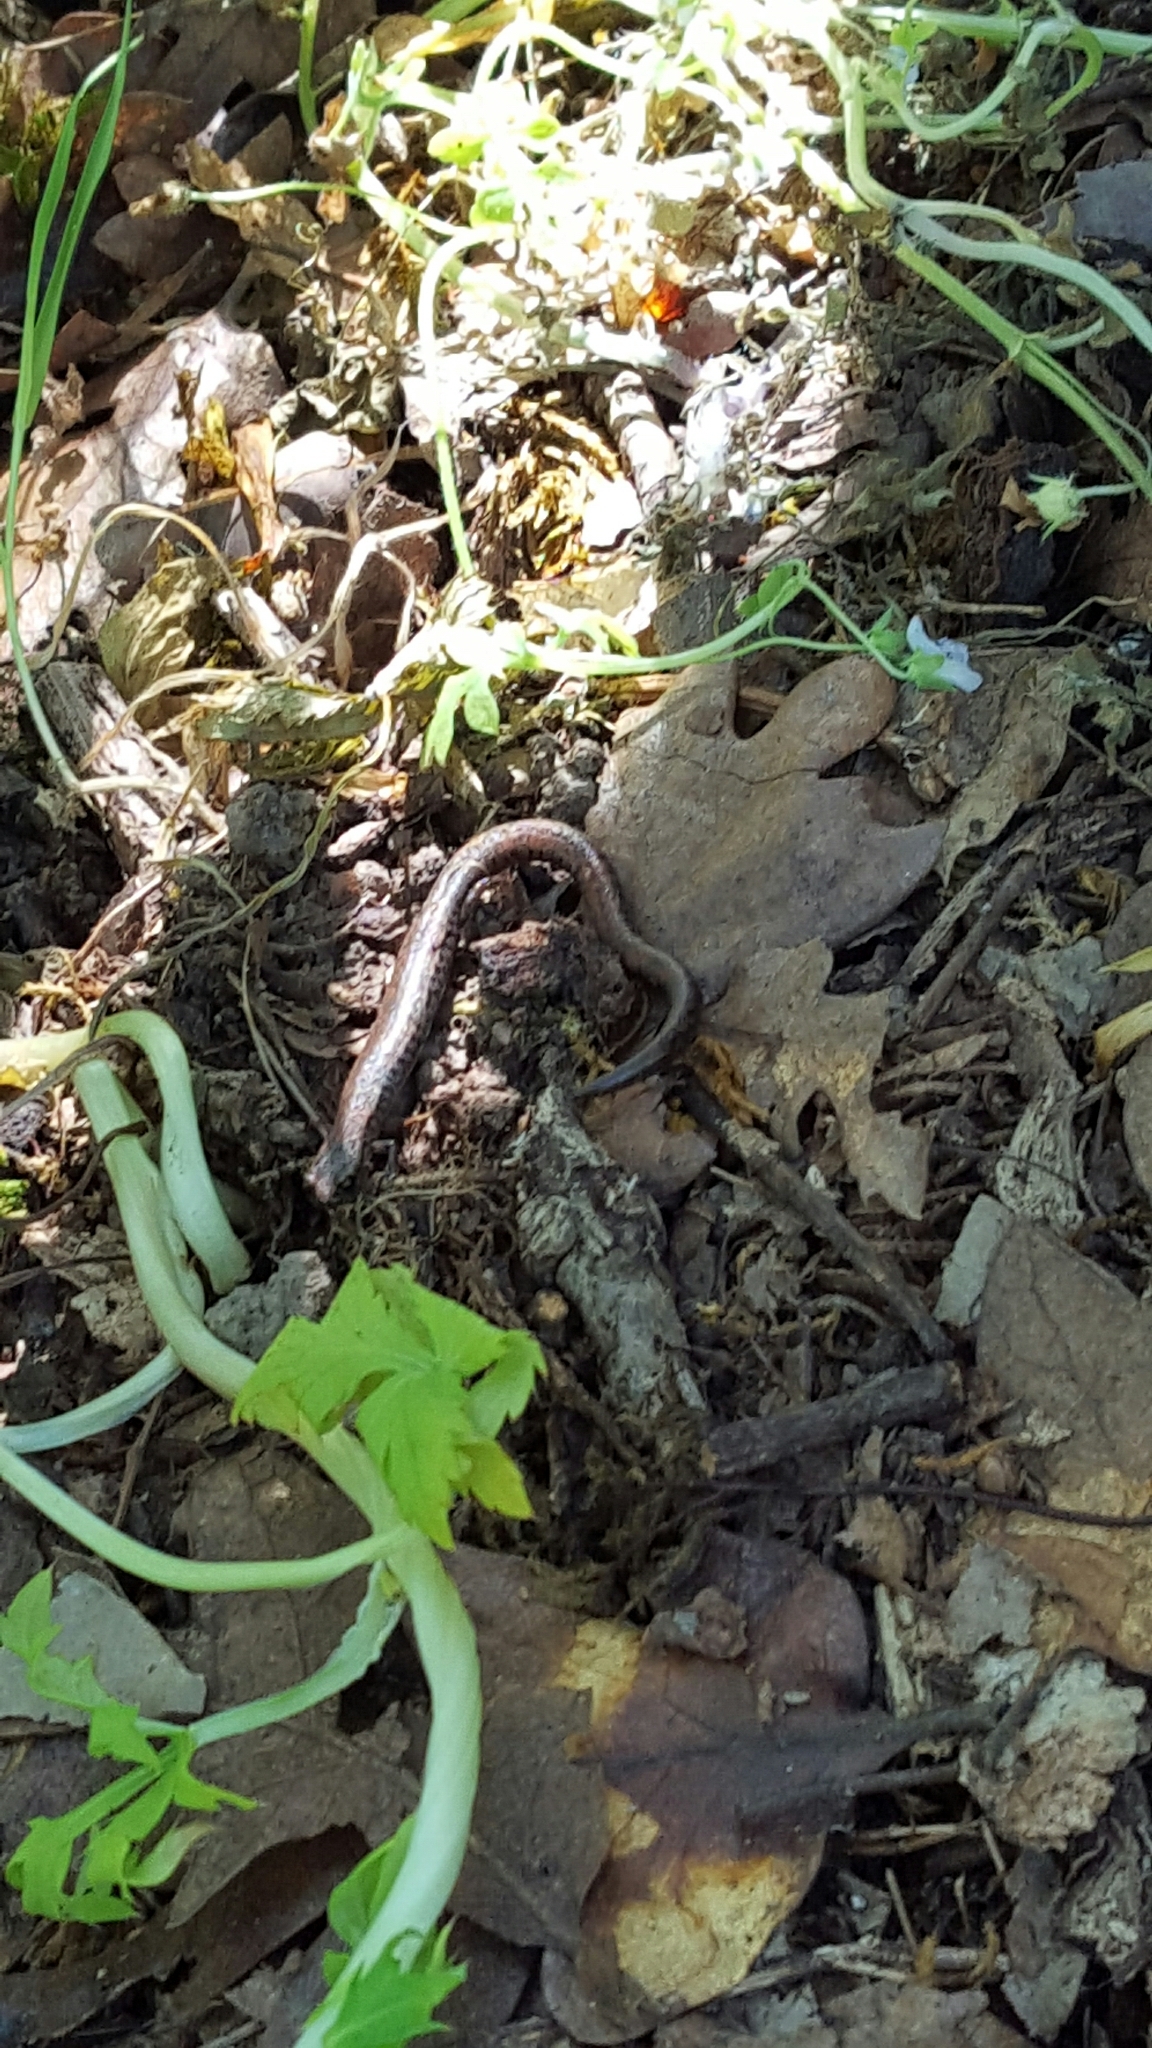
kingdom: Animalia
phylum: Chordata
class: Amphibia
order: Caudata
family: Plethodontidae
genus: Batrachoseps
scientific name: Batrachoseps attenuatus
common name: California slender salamander
